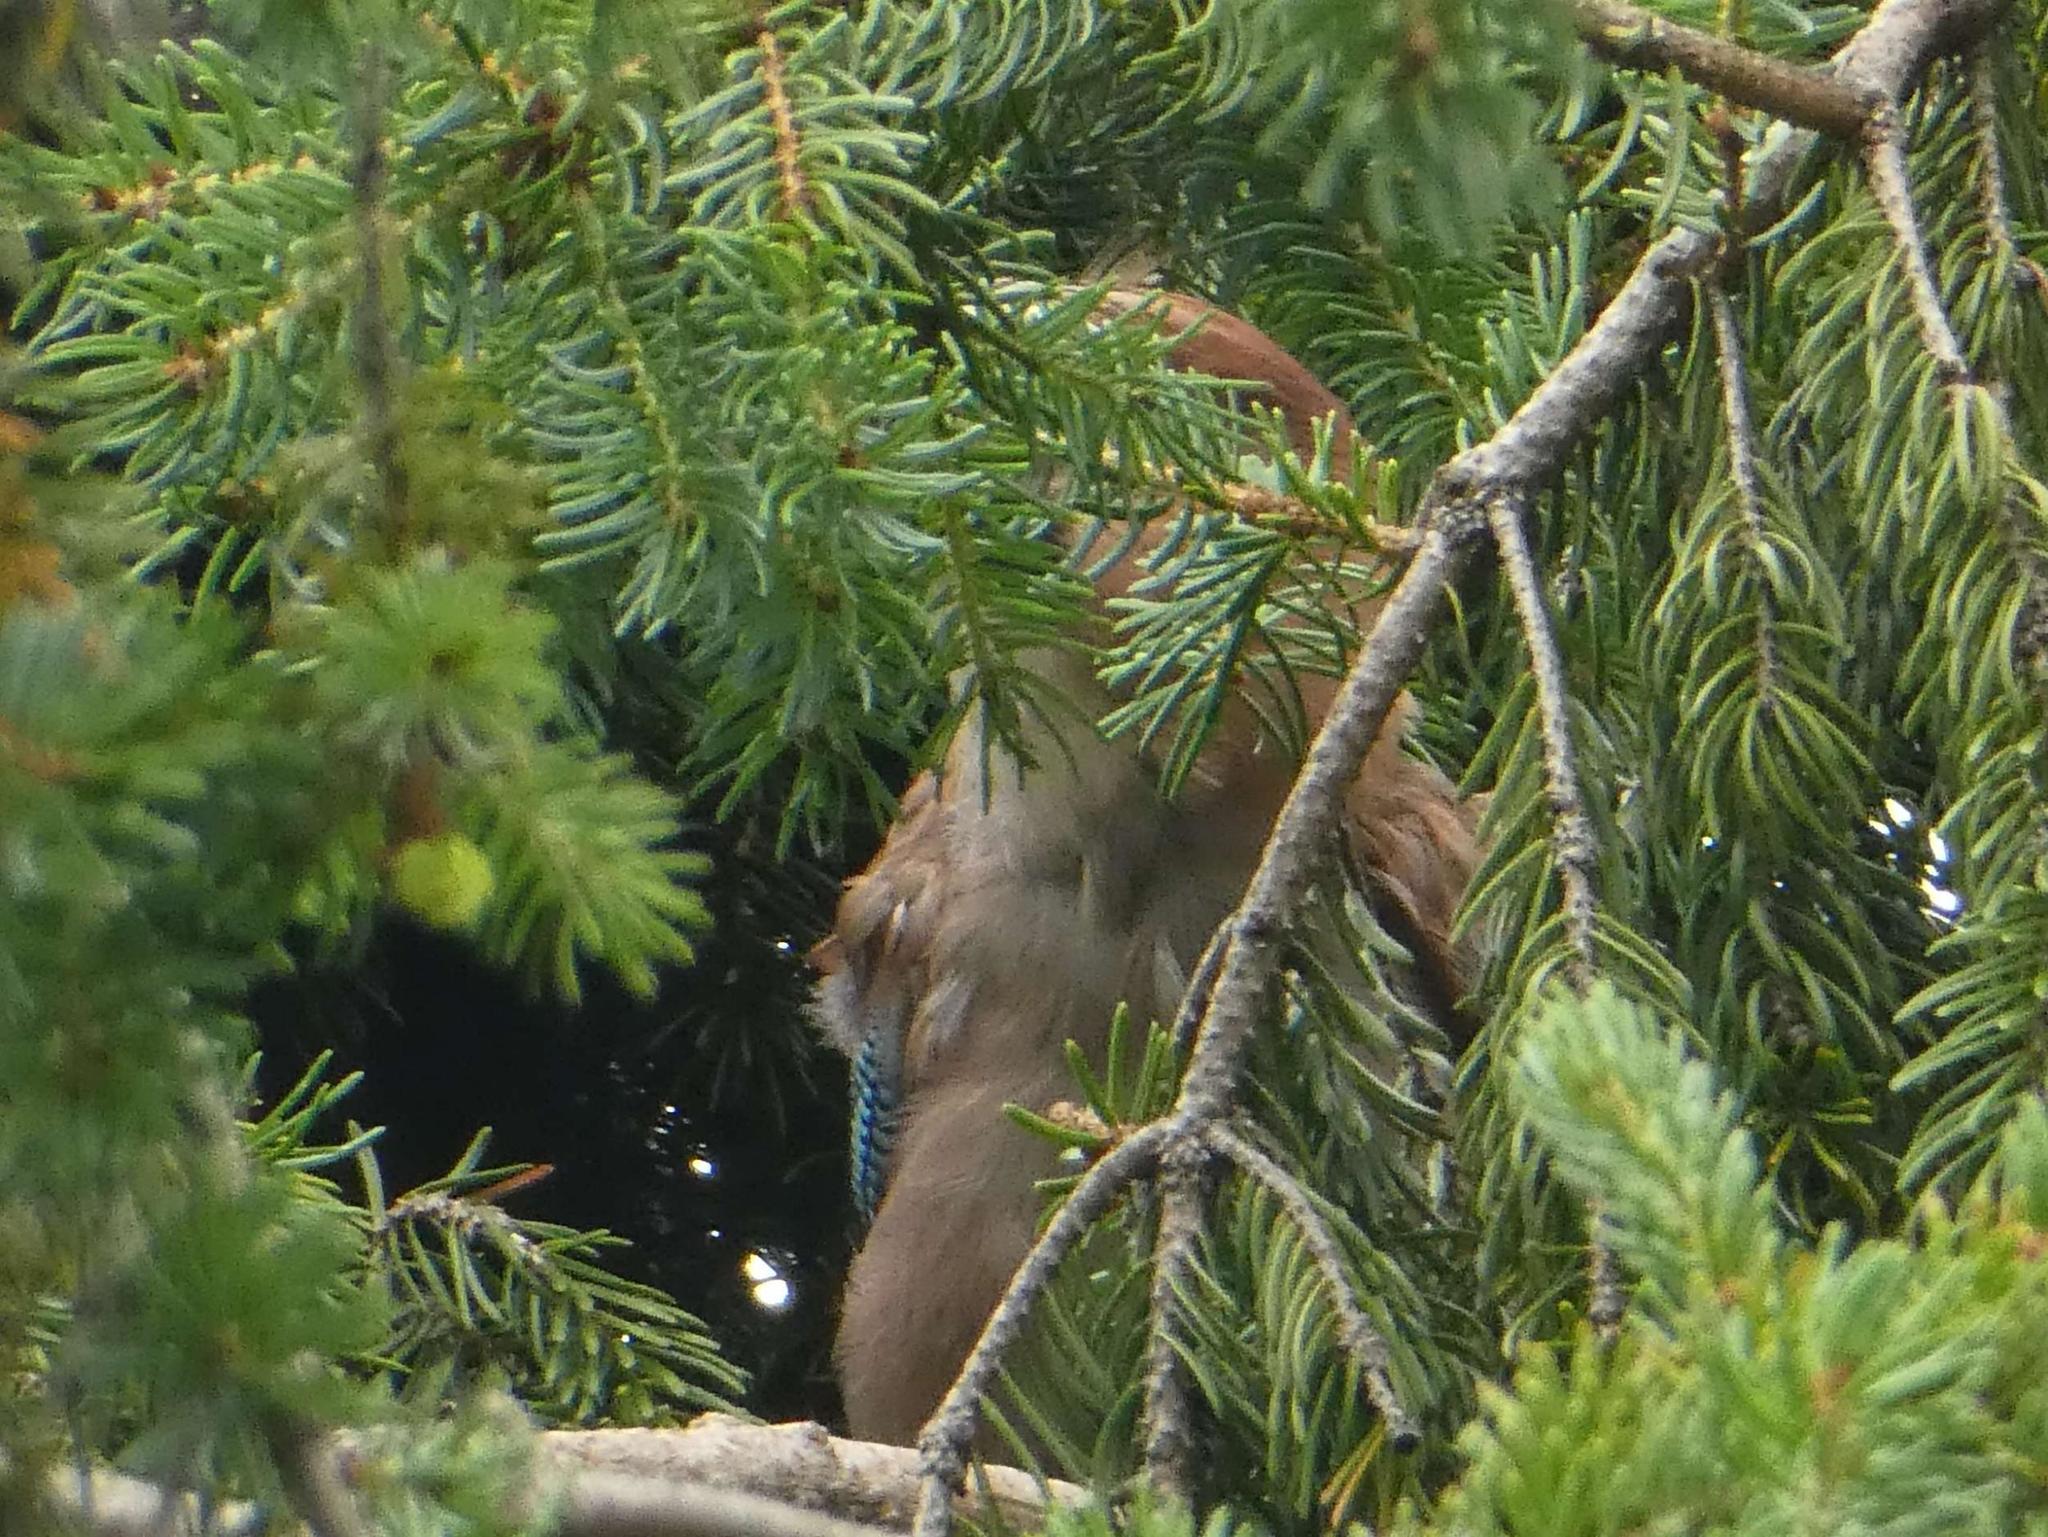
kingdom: Animalia
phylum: Chordata
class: Aves
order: Passeriformes
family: Corvidae
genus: Garrulus
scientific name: Garrulus glandarius
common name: Eurasian jay
